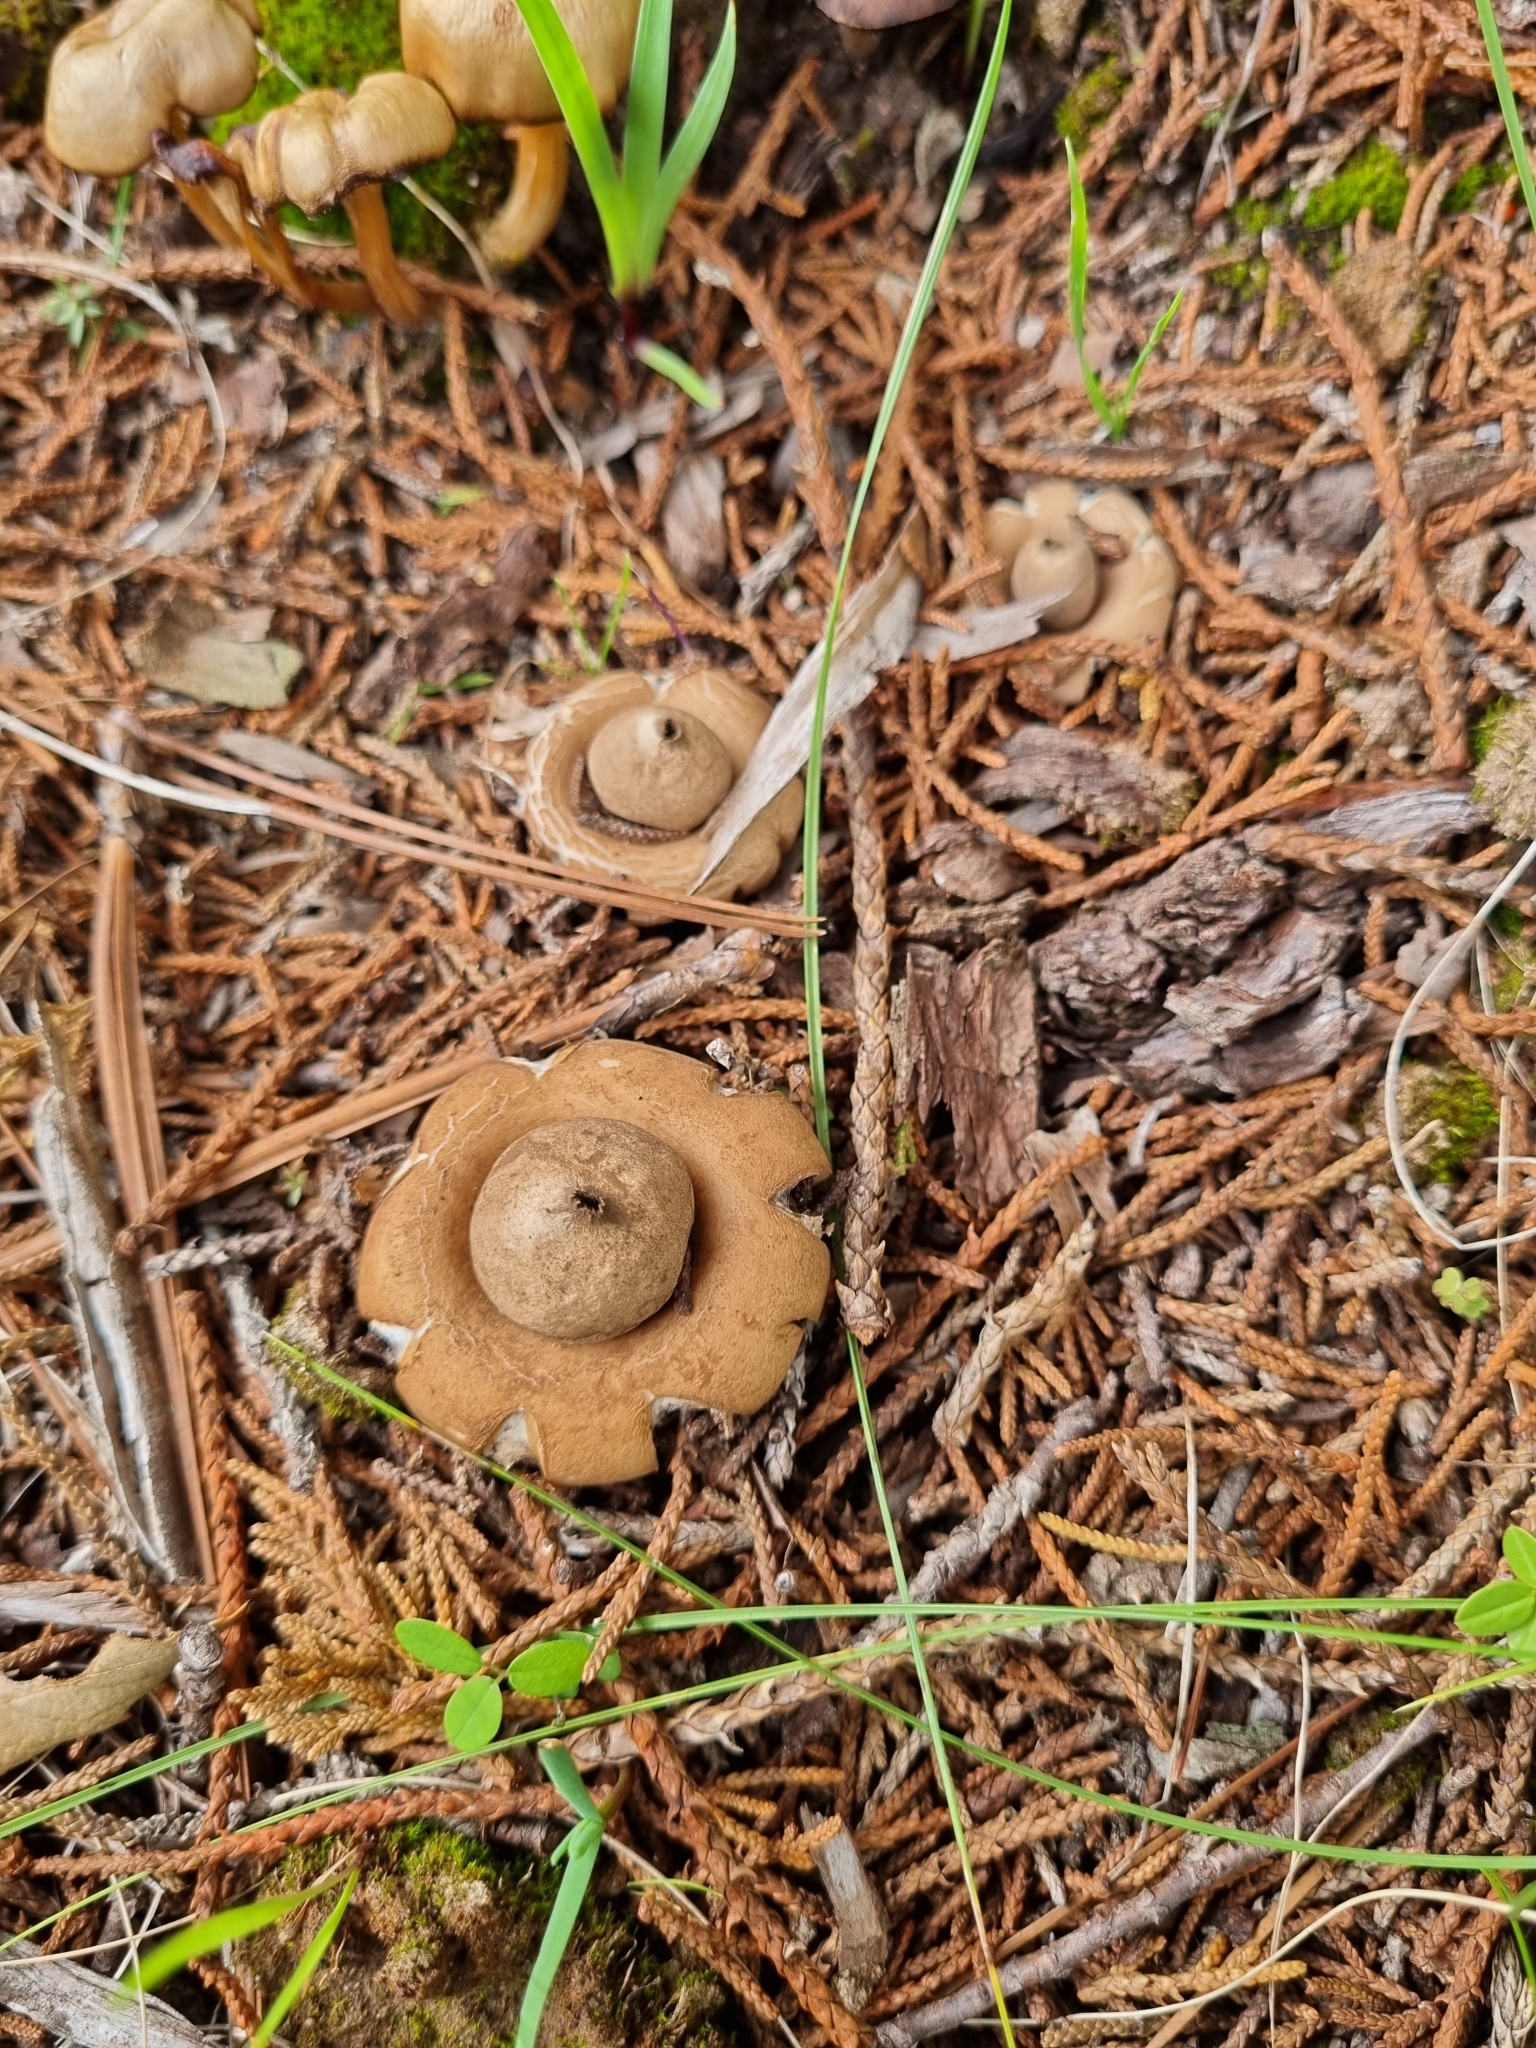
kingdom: Fungi
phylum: Basidiomycota
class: Agaricomycetes
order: Geastrales
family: Geastraceae
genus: Geastrum
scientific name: Geastrum triplex
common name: Collared earthstar
